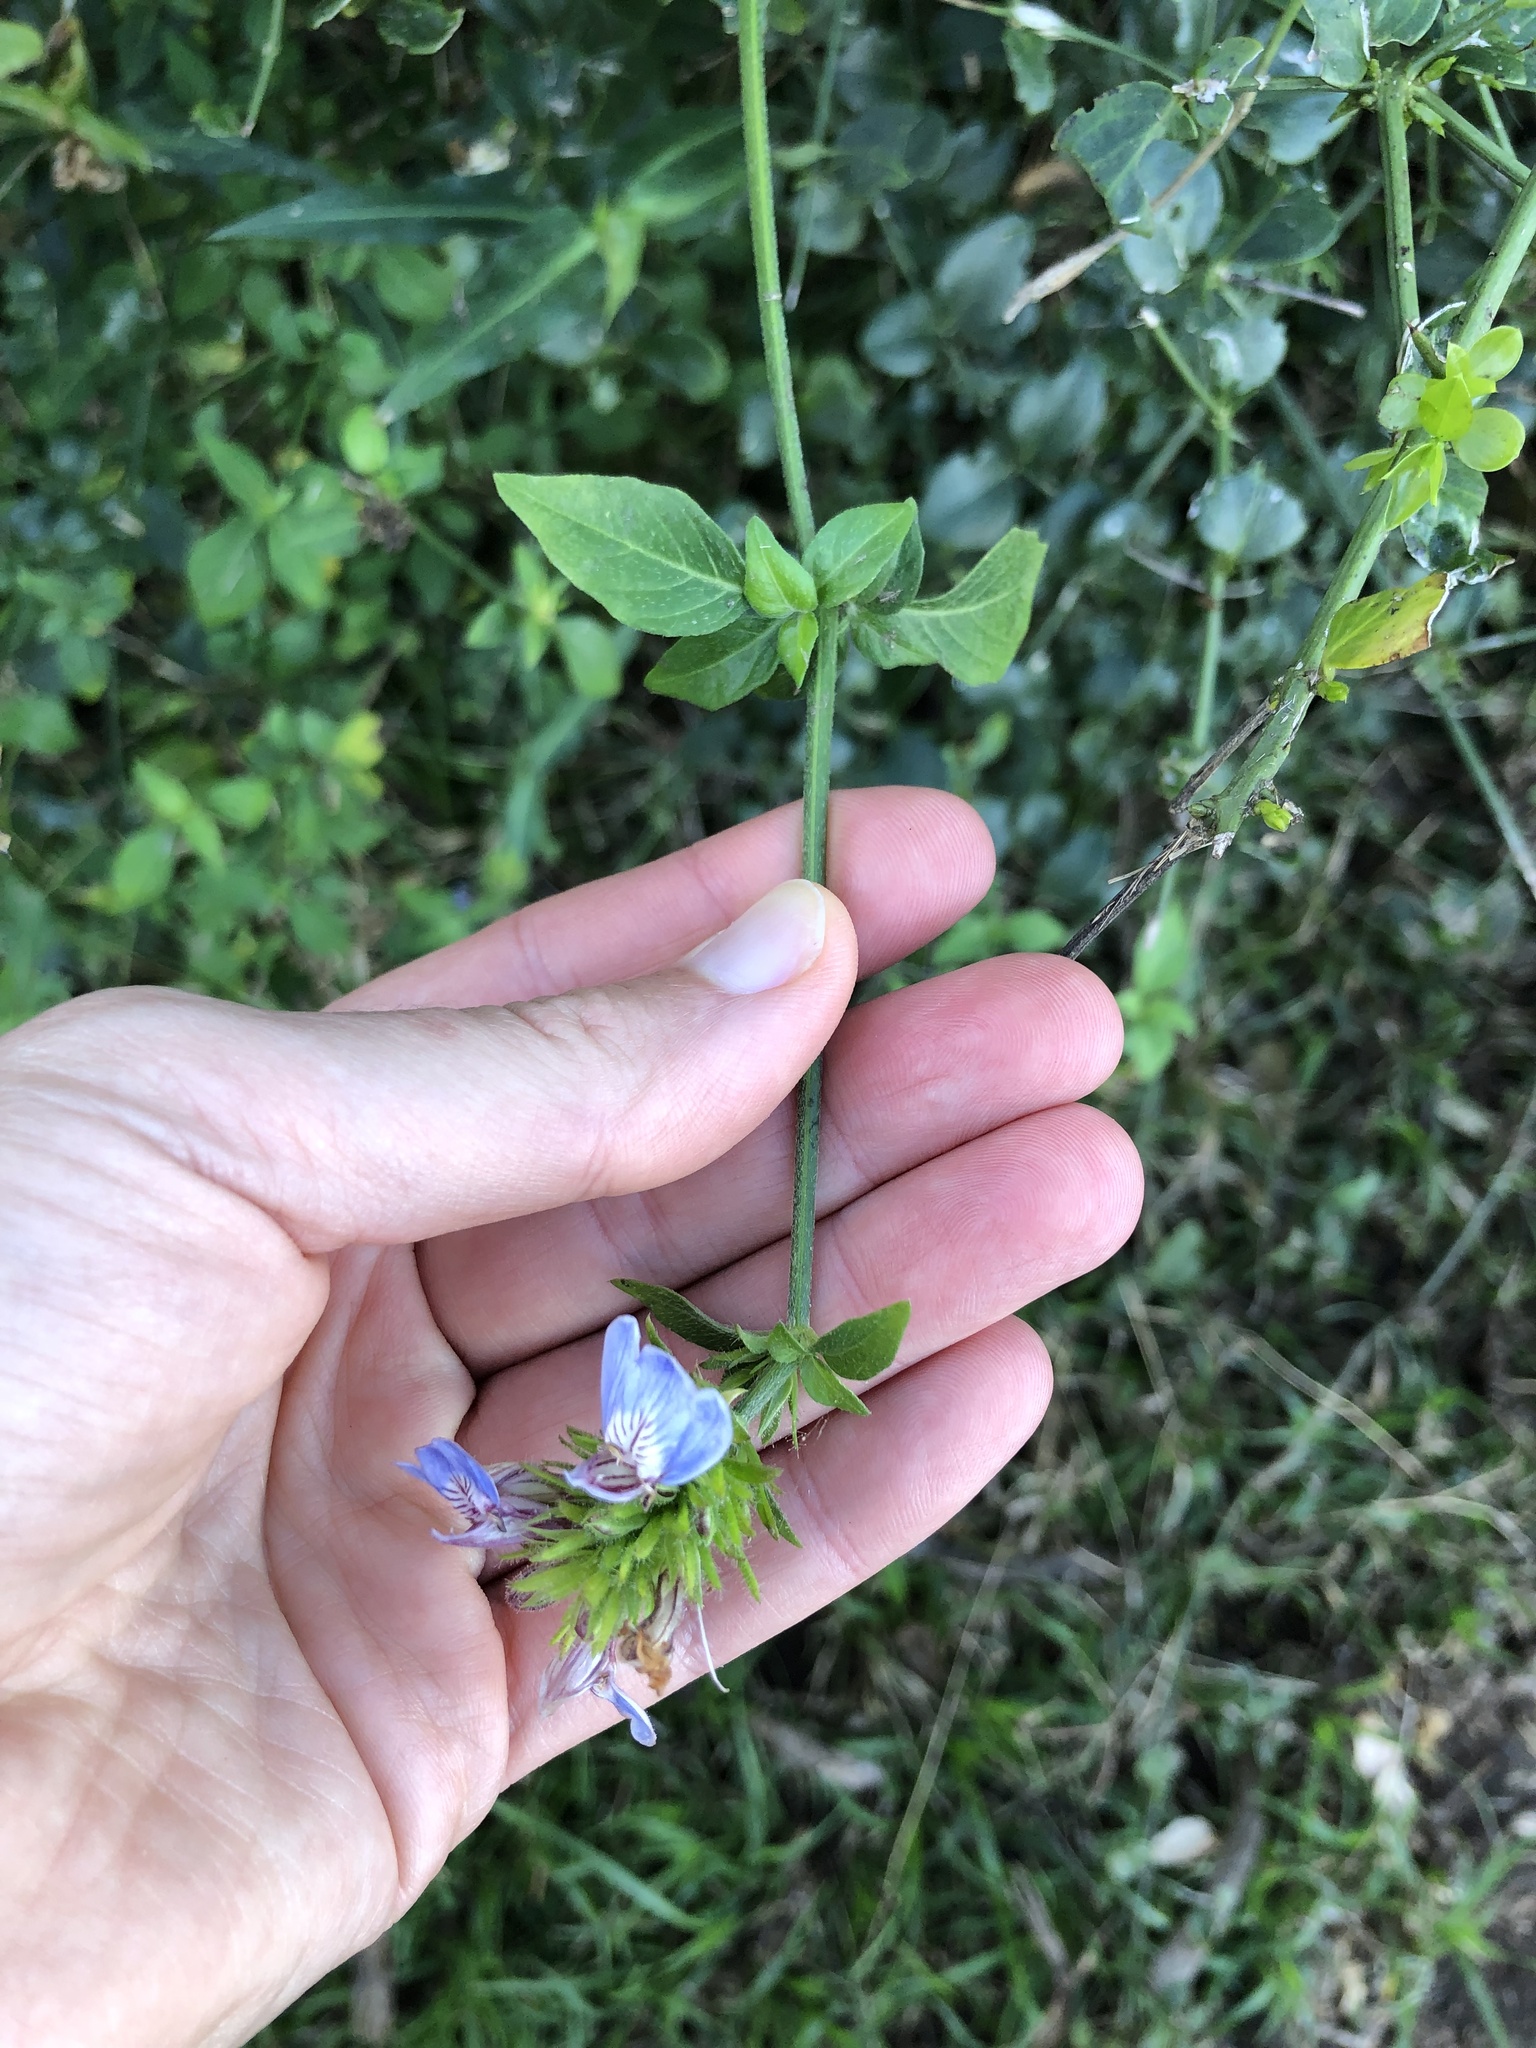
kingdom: Plantae
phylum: Tracheophyta
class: Magnoliopsida
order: Lamiales
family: Acanthaceae
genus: Justicia
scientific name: Justicia petiolaris
